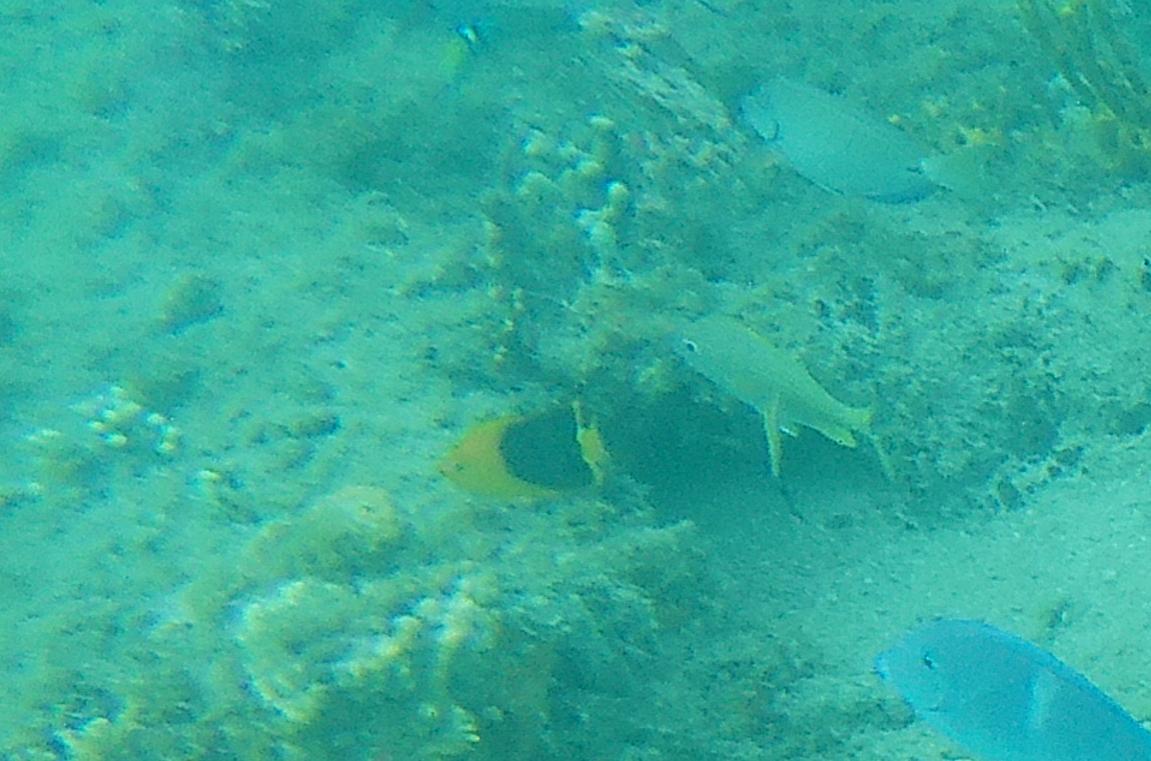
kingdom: Animalia
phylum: Chordata
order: Perciformes
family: Pomacanthidae
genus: Holacanthus
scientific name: Holacanthus tricolor
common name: Rock beauty
